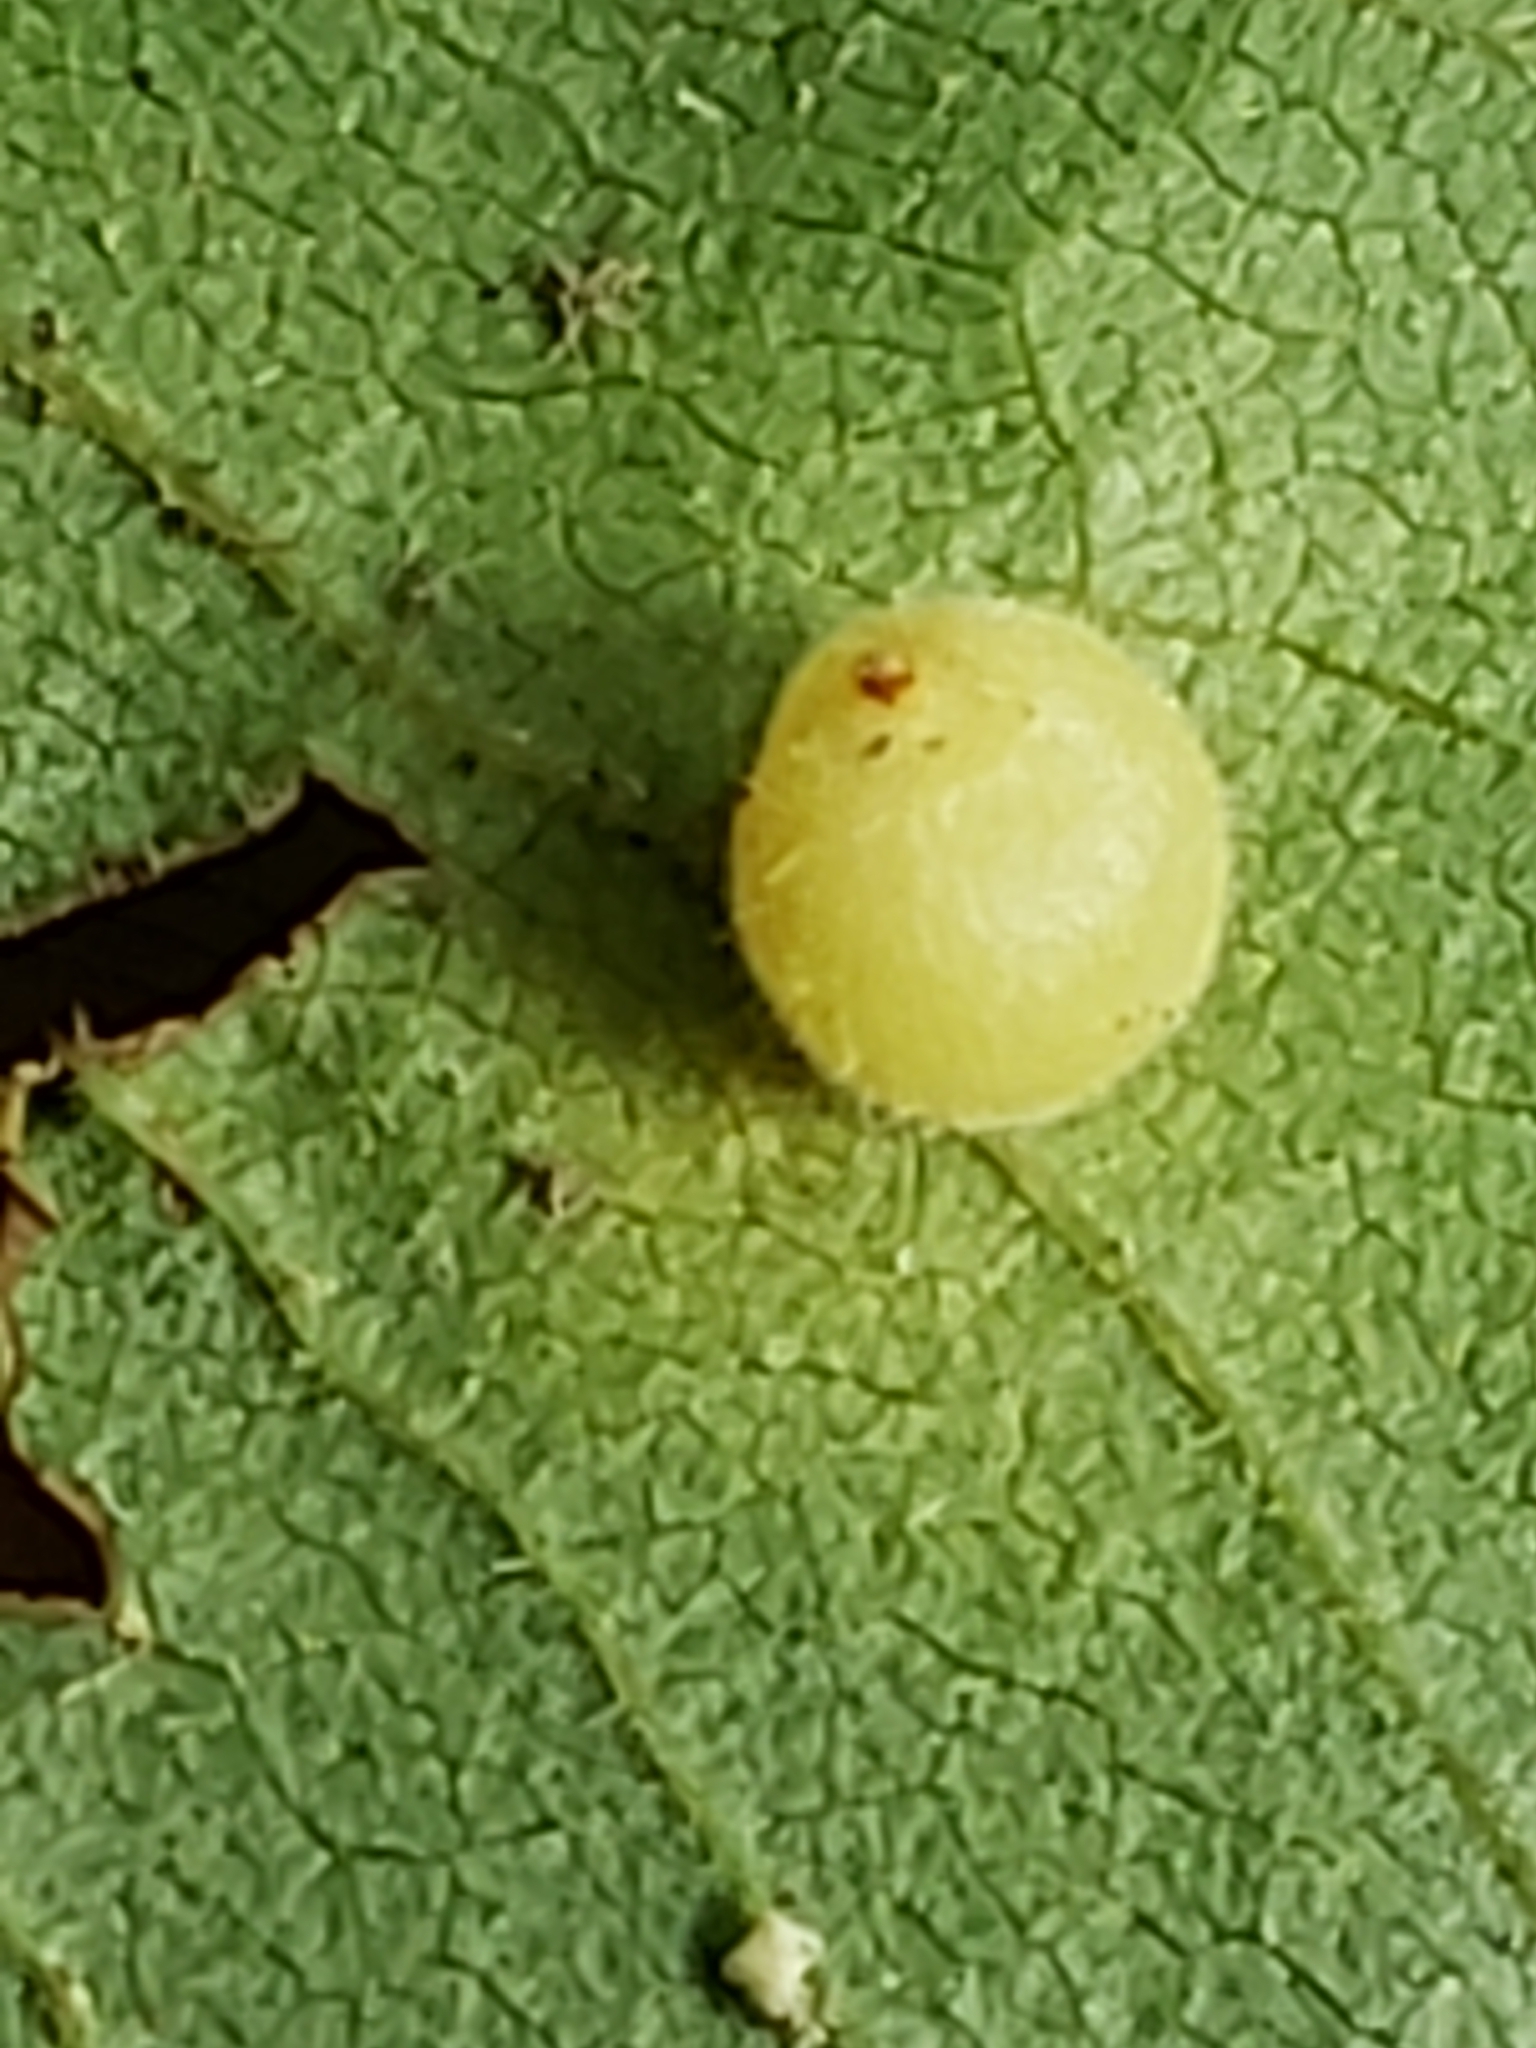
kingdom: Animalia
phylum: Arthropoda
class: Insecta
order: Diptera
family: Cecidomyiidae
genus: Caryomyia
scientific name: Caryomyia cilidolium
